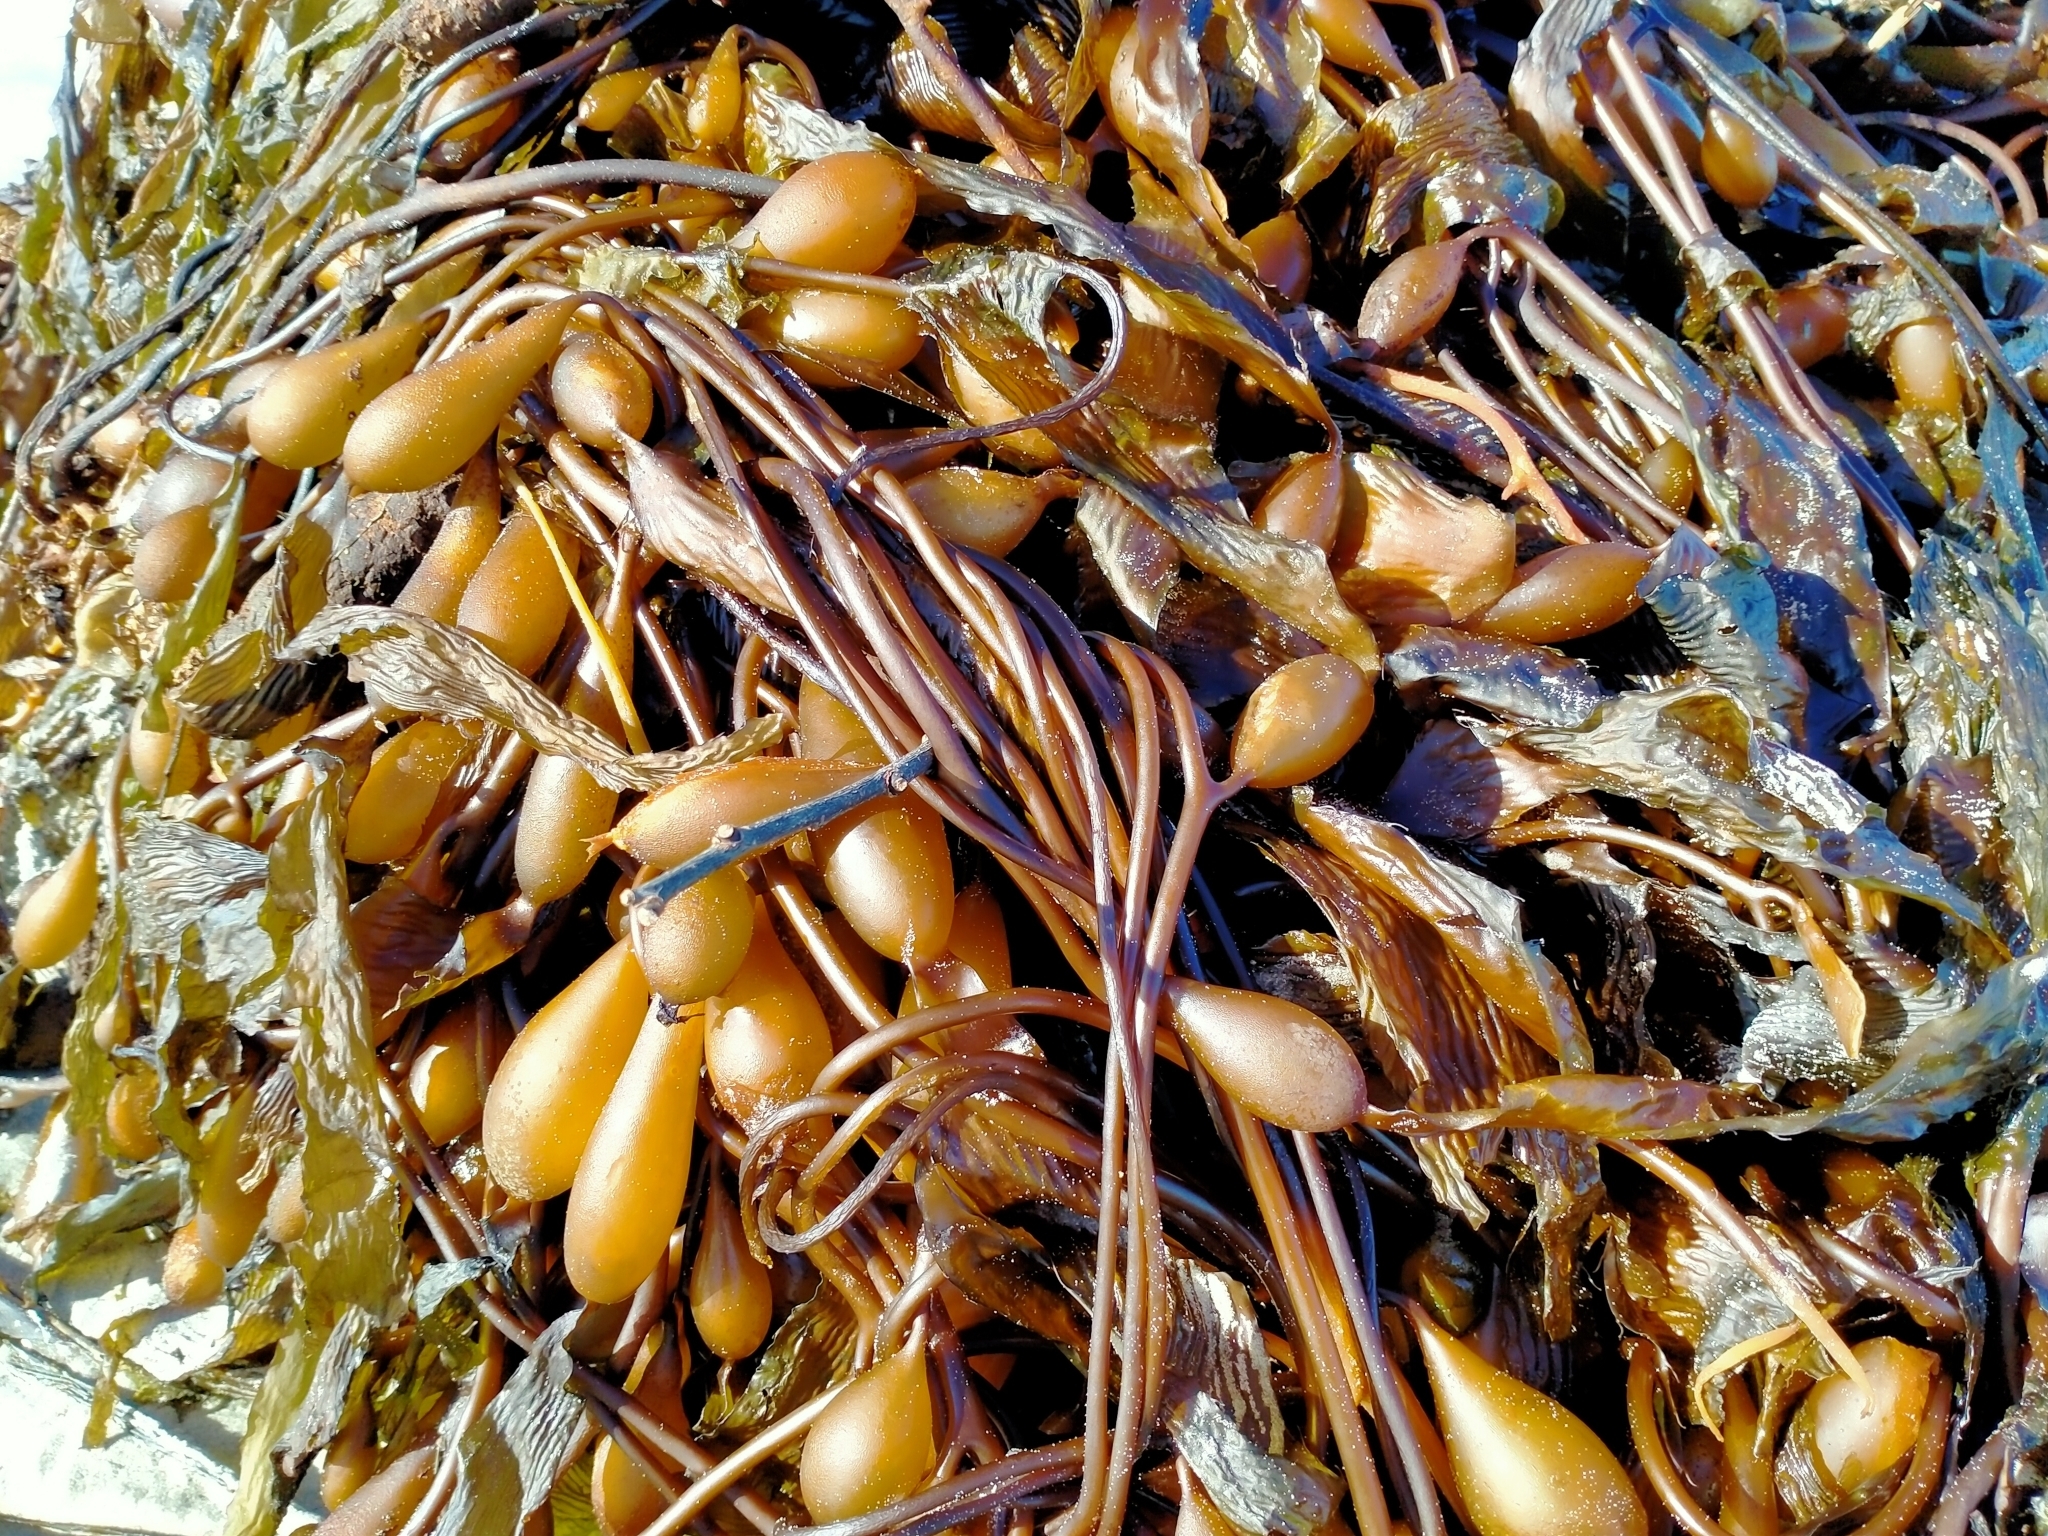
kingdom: Chromista
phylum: Ochrophyta
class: Phaeophyceae
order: Laminariales
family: Laminariaceae
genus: Macrocystis
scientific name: Macrocystis pyrifera
